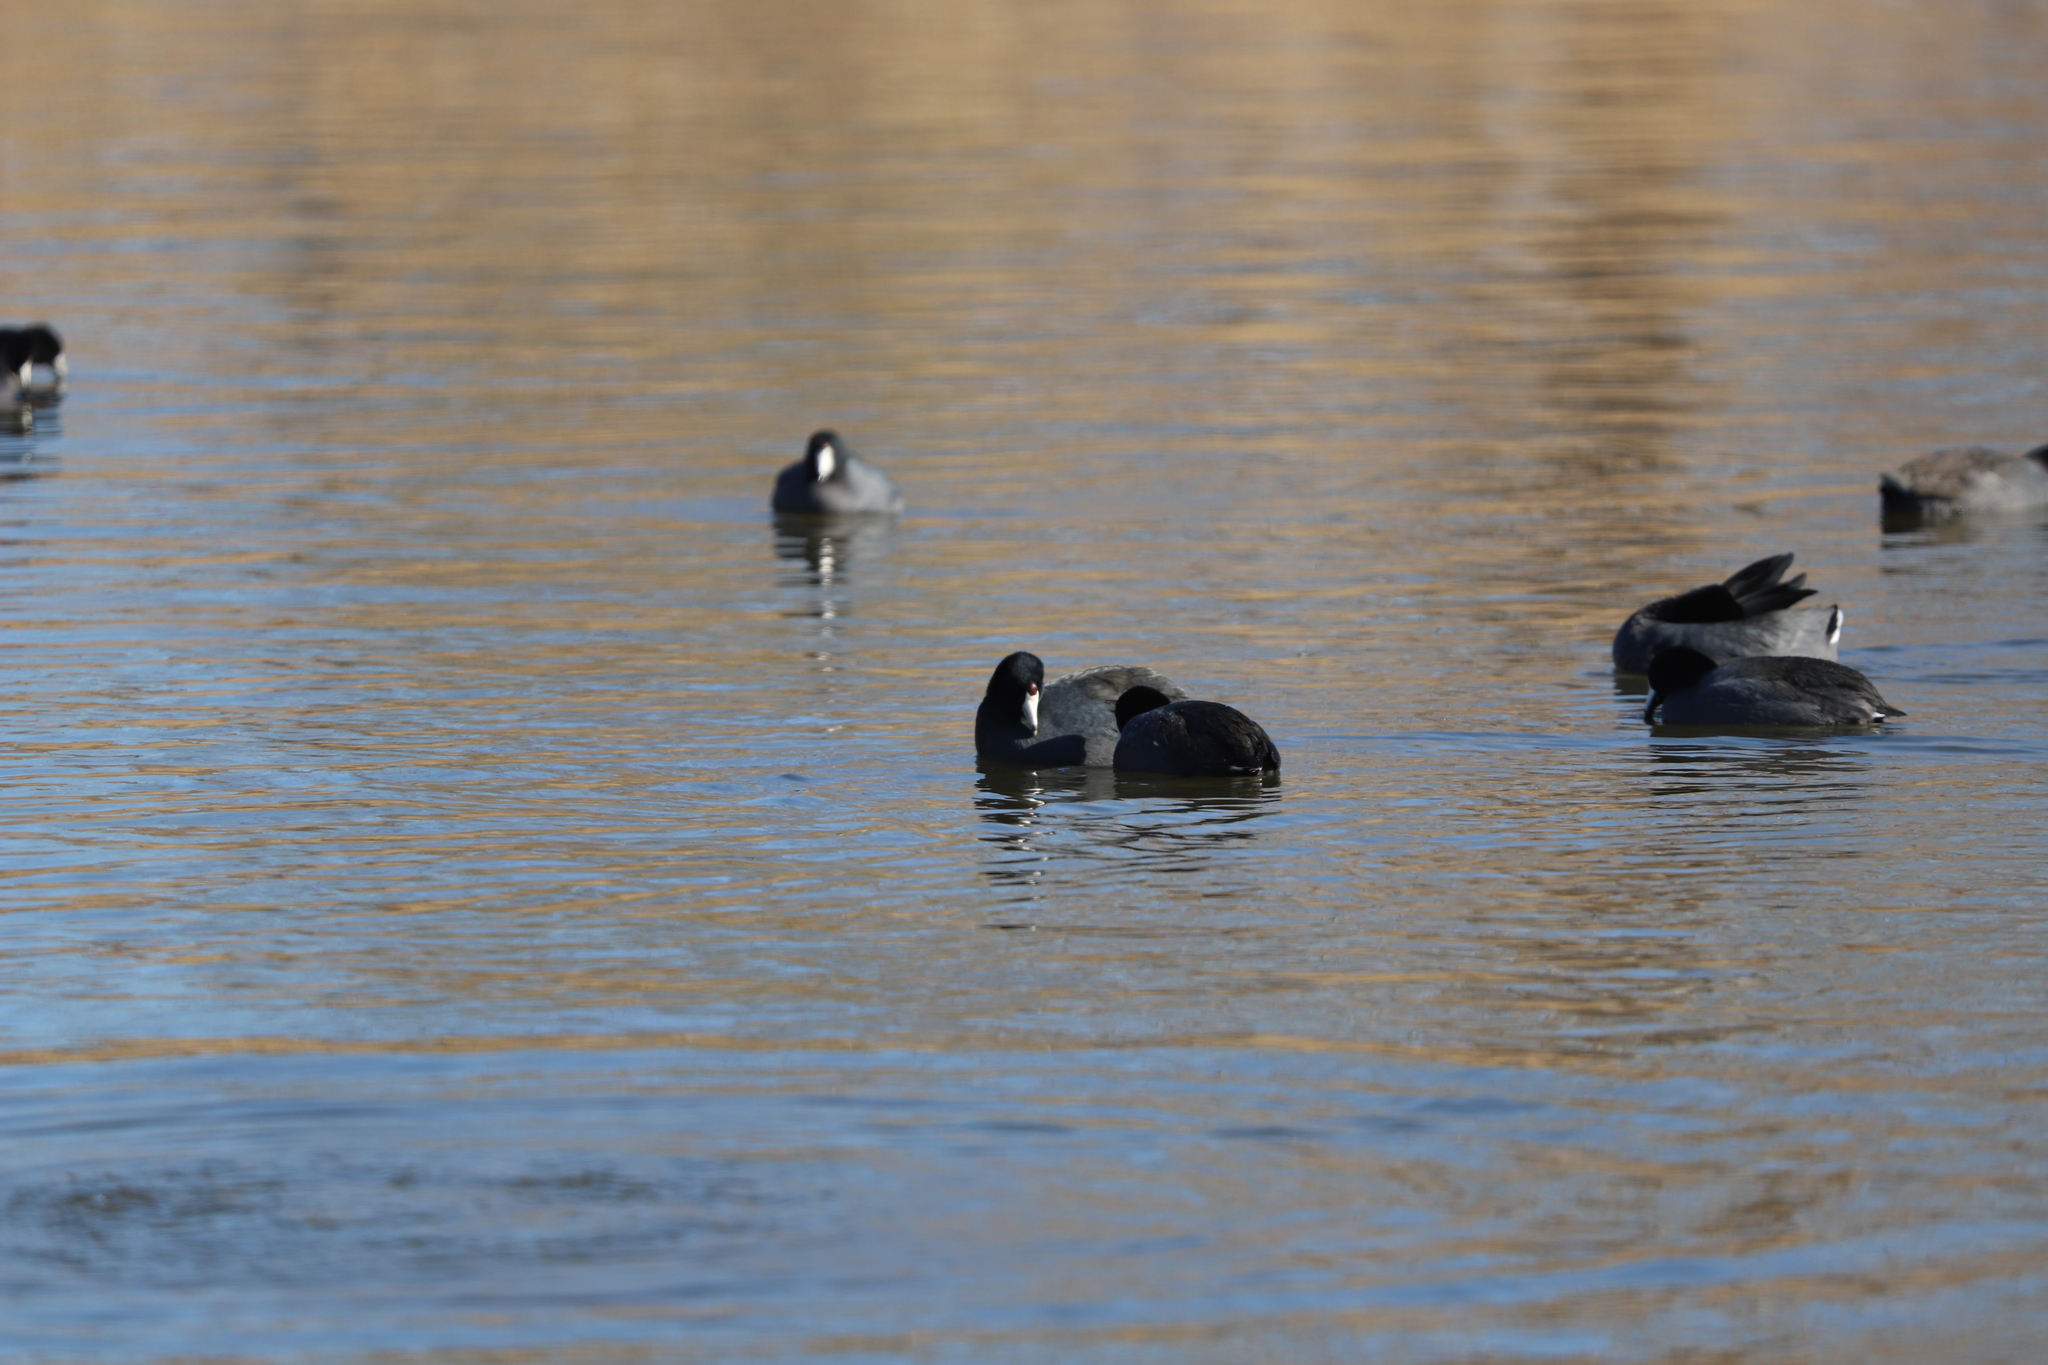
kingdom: Animalia
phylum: Chordata
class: Aves
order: Gruiformes
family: Rallidae
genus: Fulica
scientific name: Fulica americana
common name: American coot
